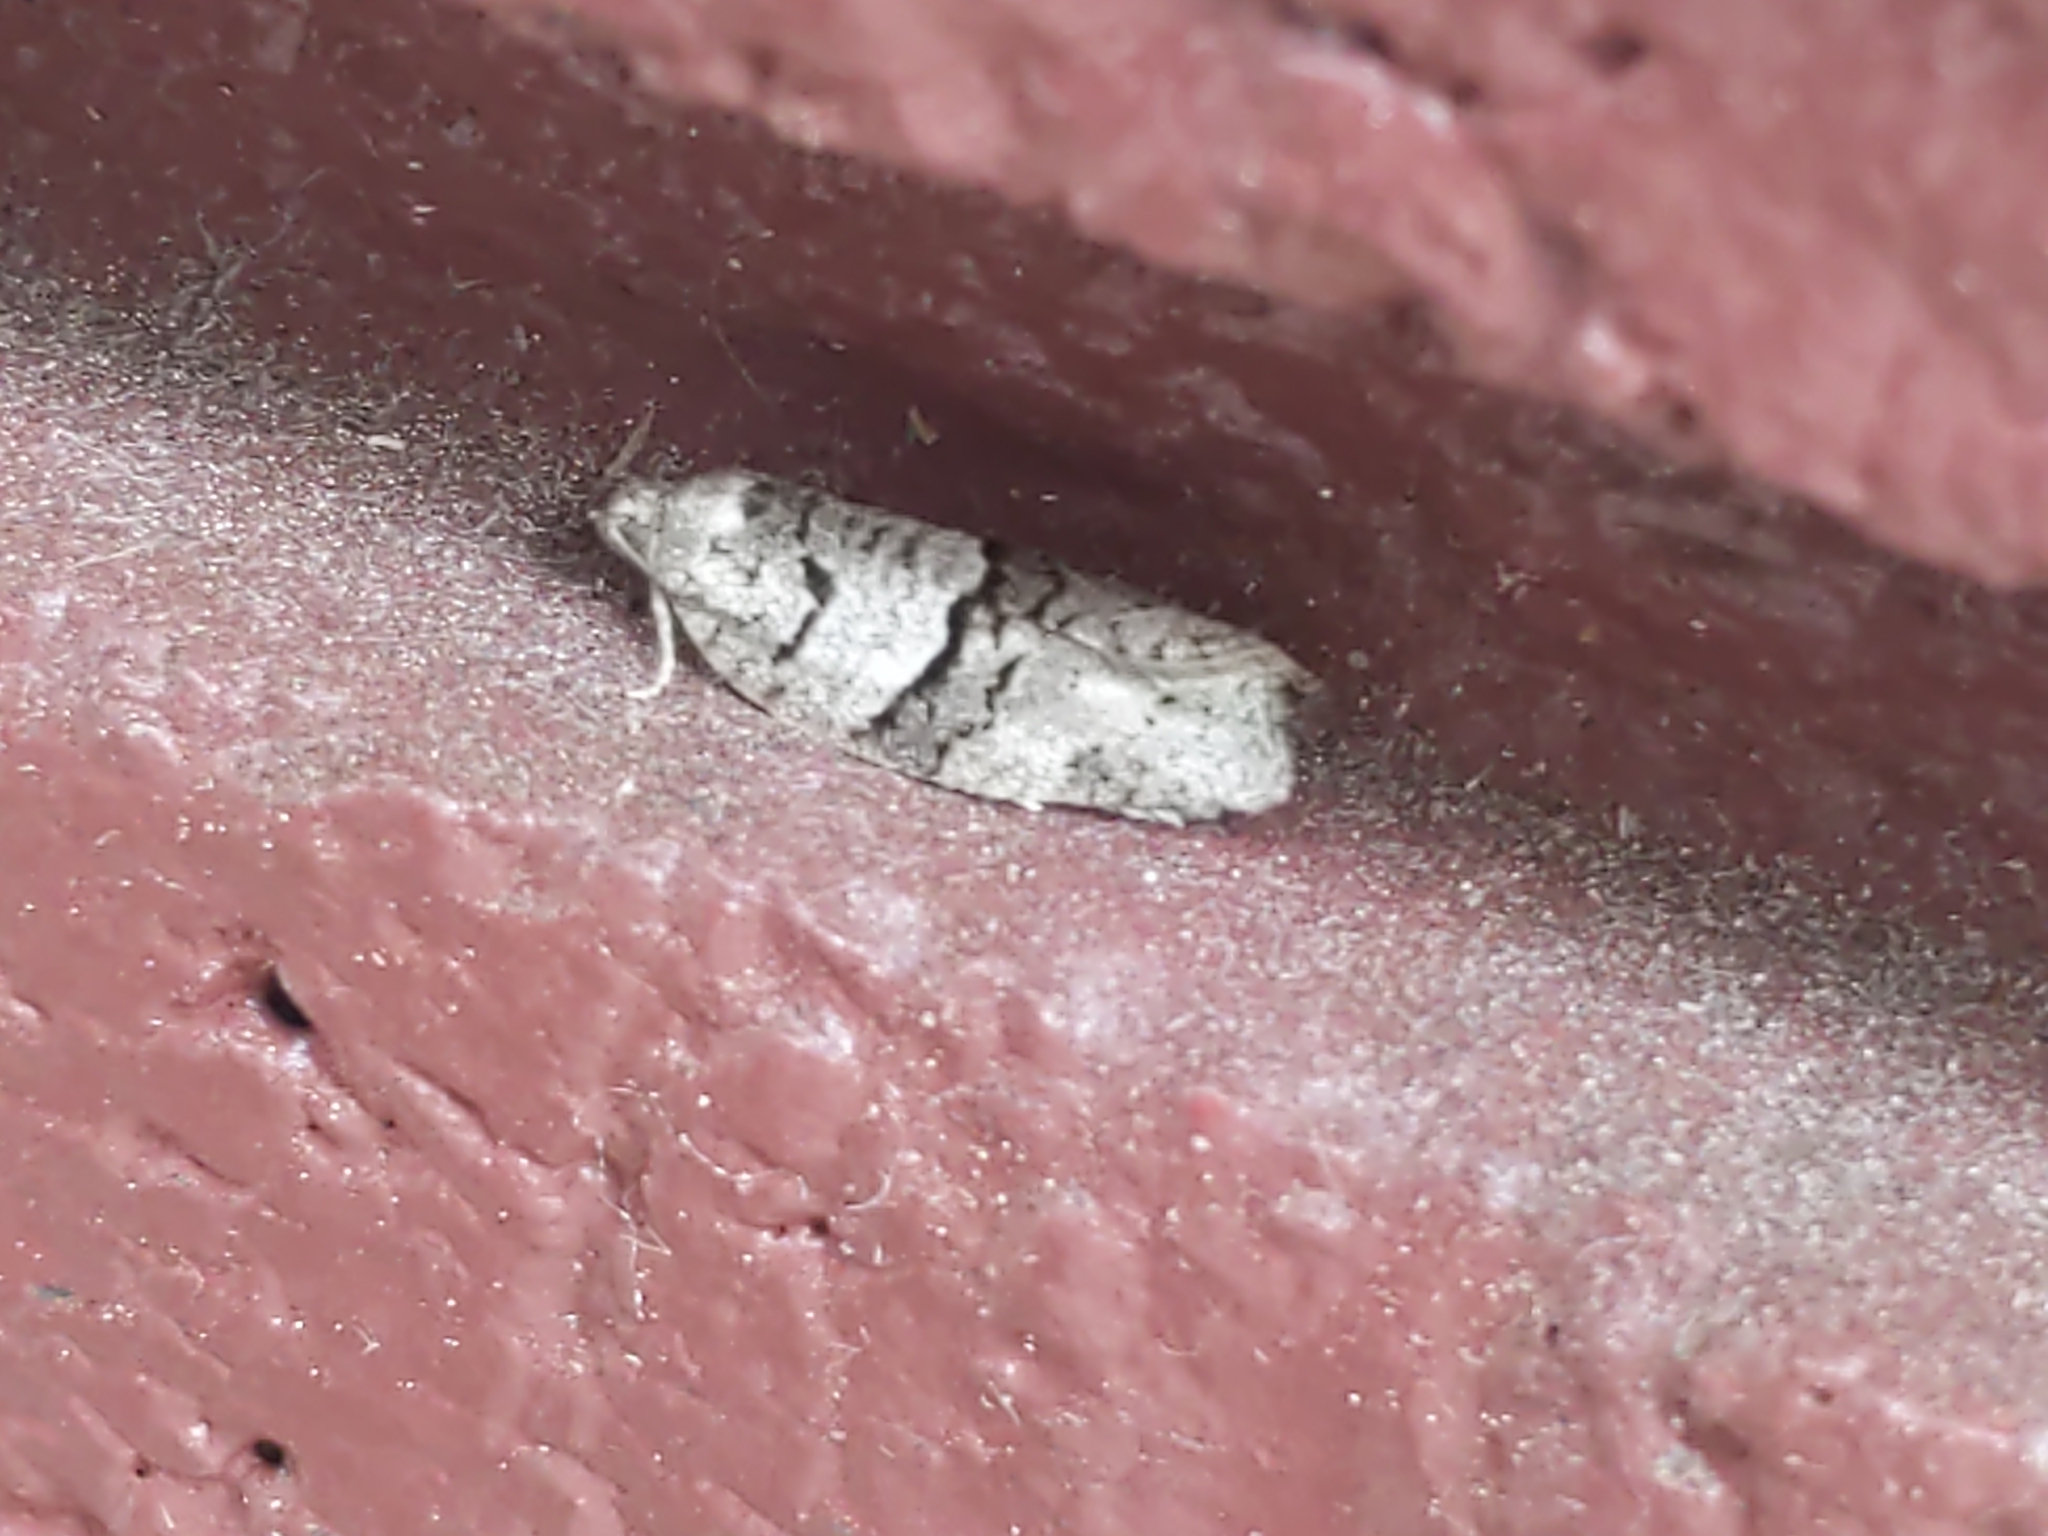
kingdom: Animalia
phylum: Arthropoda
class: Insecta
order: Lepidoptera
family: Tortricidae
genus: Syndemis
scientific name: Syndemis afflictana
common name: Gray leafroller moth
